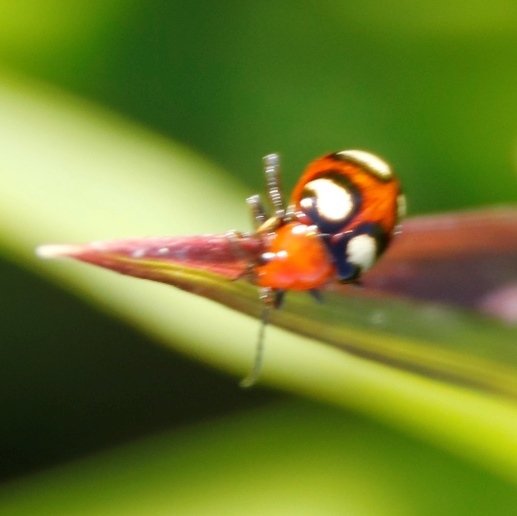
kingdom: Animalia
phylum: Arthropoda
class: Insecta
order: Coleoptera
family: Chrysomelidae
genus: Monolepta
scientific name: Monolepta
